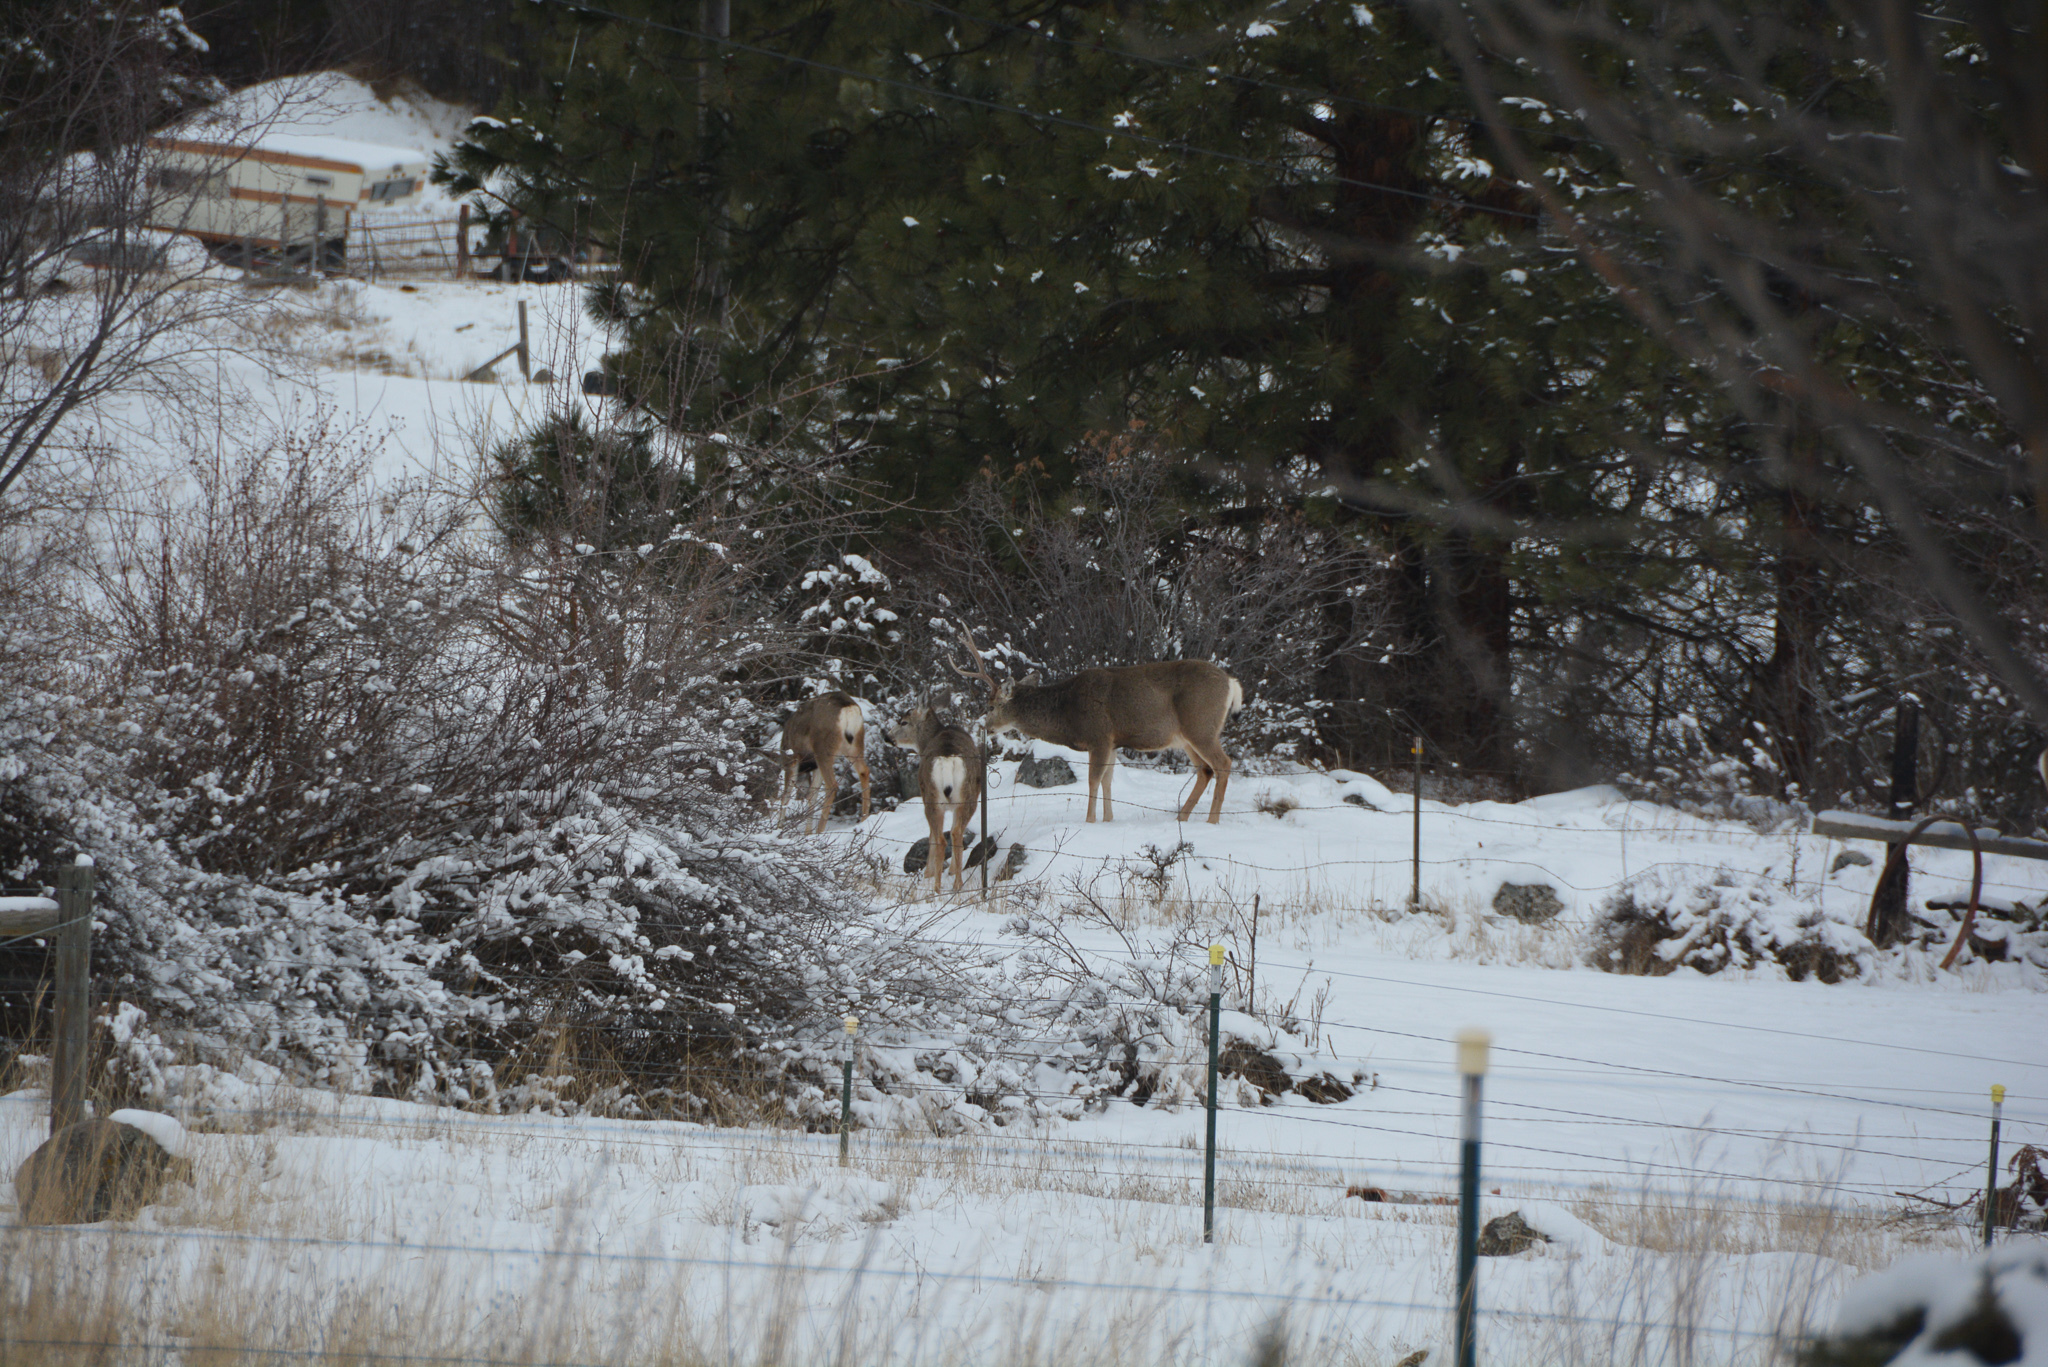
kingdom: Animalia
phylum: Chordata
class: Mammalia
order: Artiodactyla
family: Cervidae
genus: Odocoileus
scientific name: Odocoileus hemionus
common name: Mule deer
